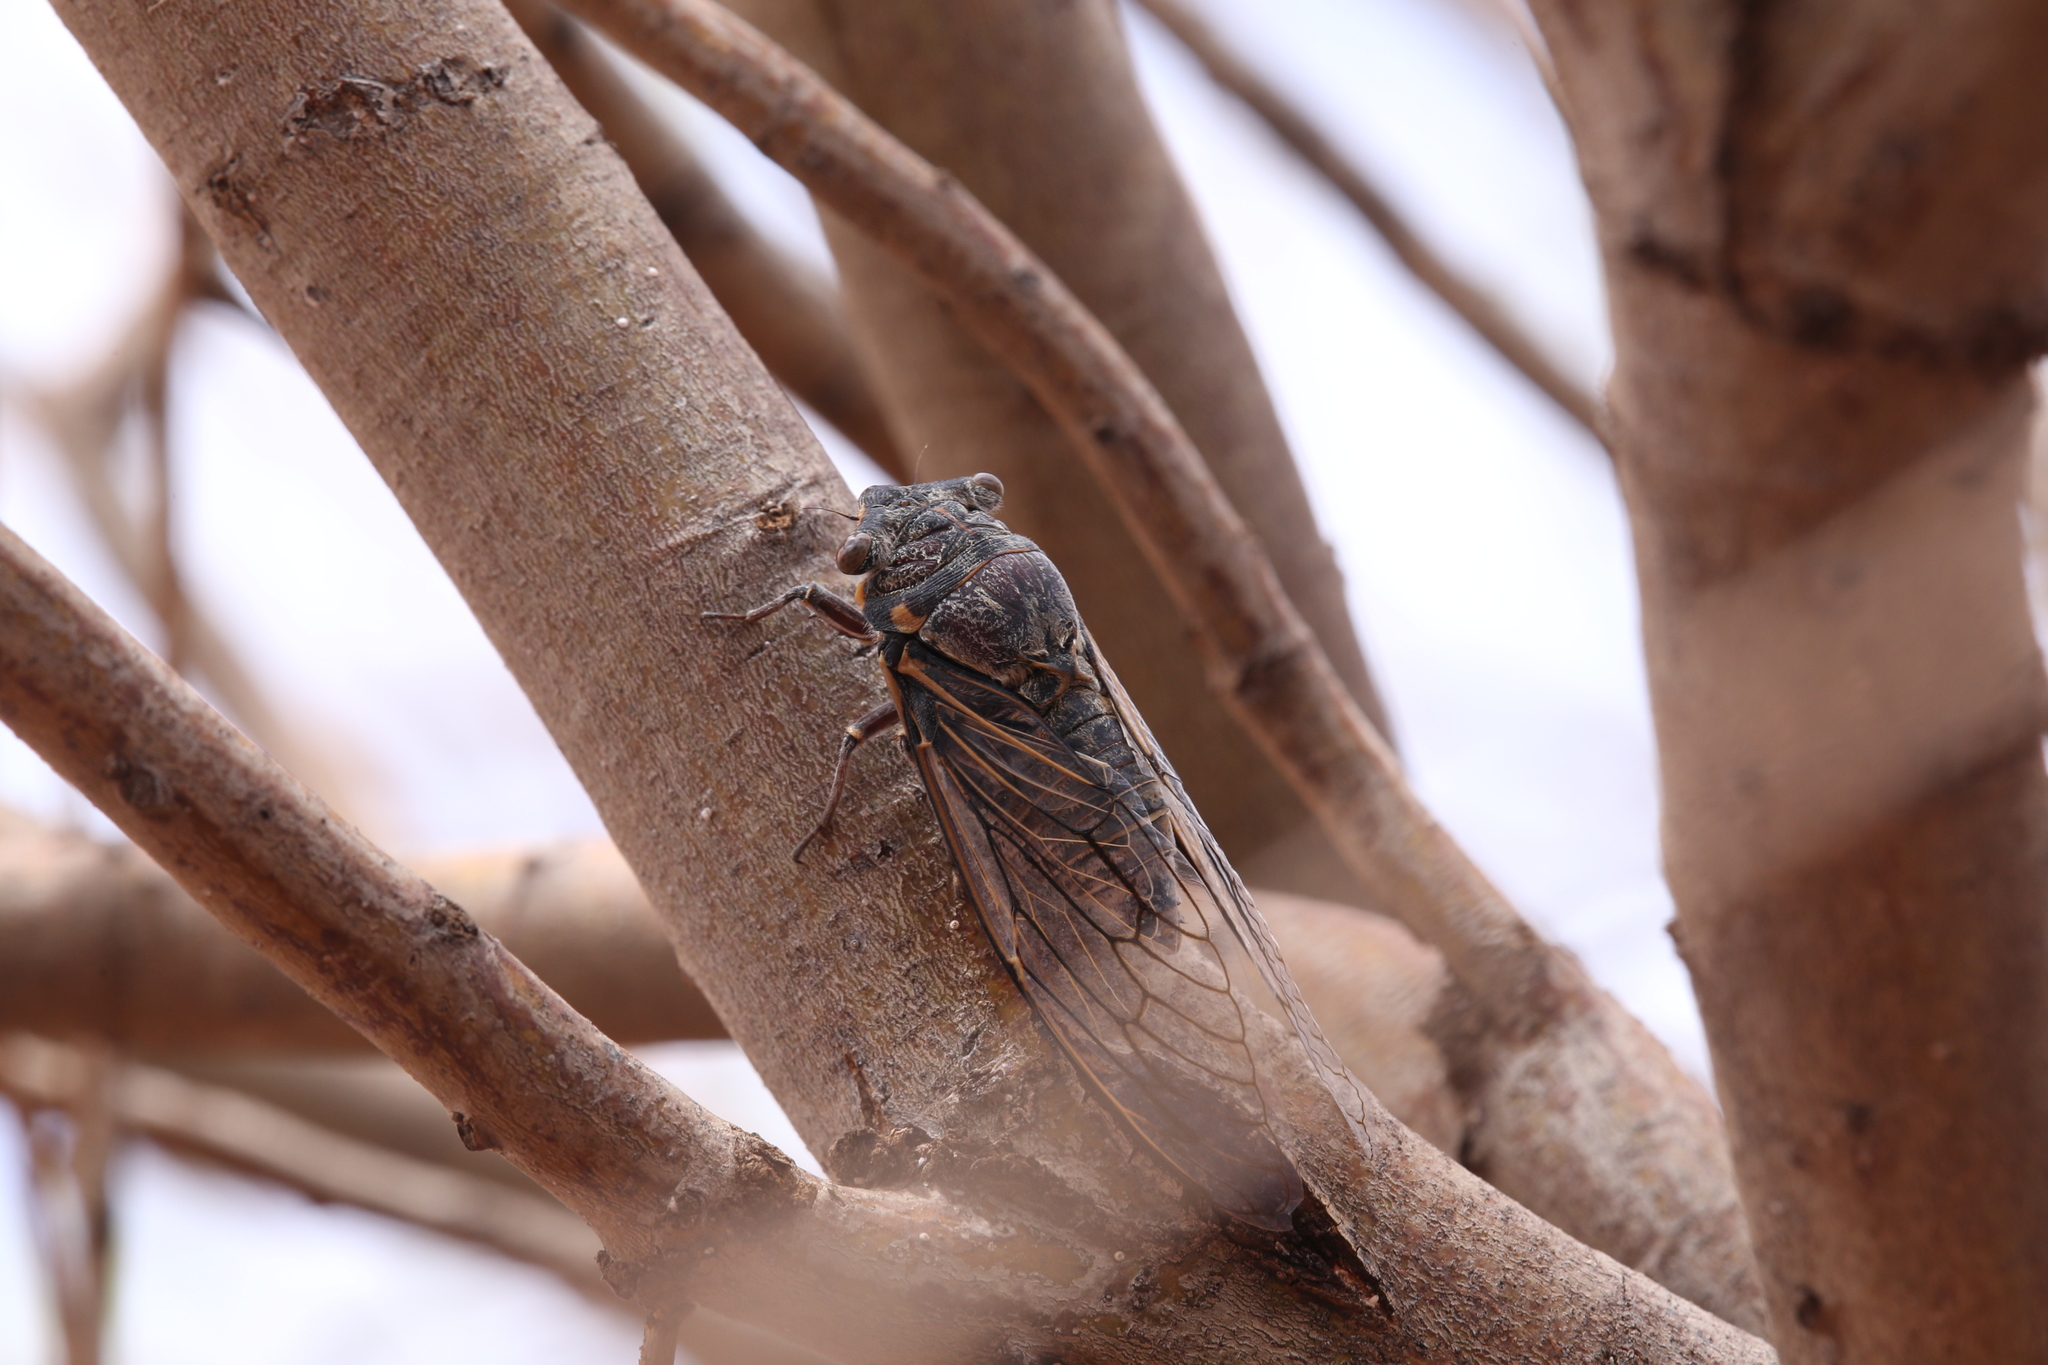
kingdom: Animalia
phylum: Arthropoda
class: Insecta
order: Hemiptera
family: Cicadidae
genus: Burbunga
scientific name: Burbunga hillieri
